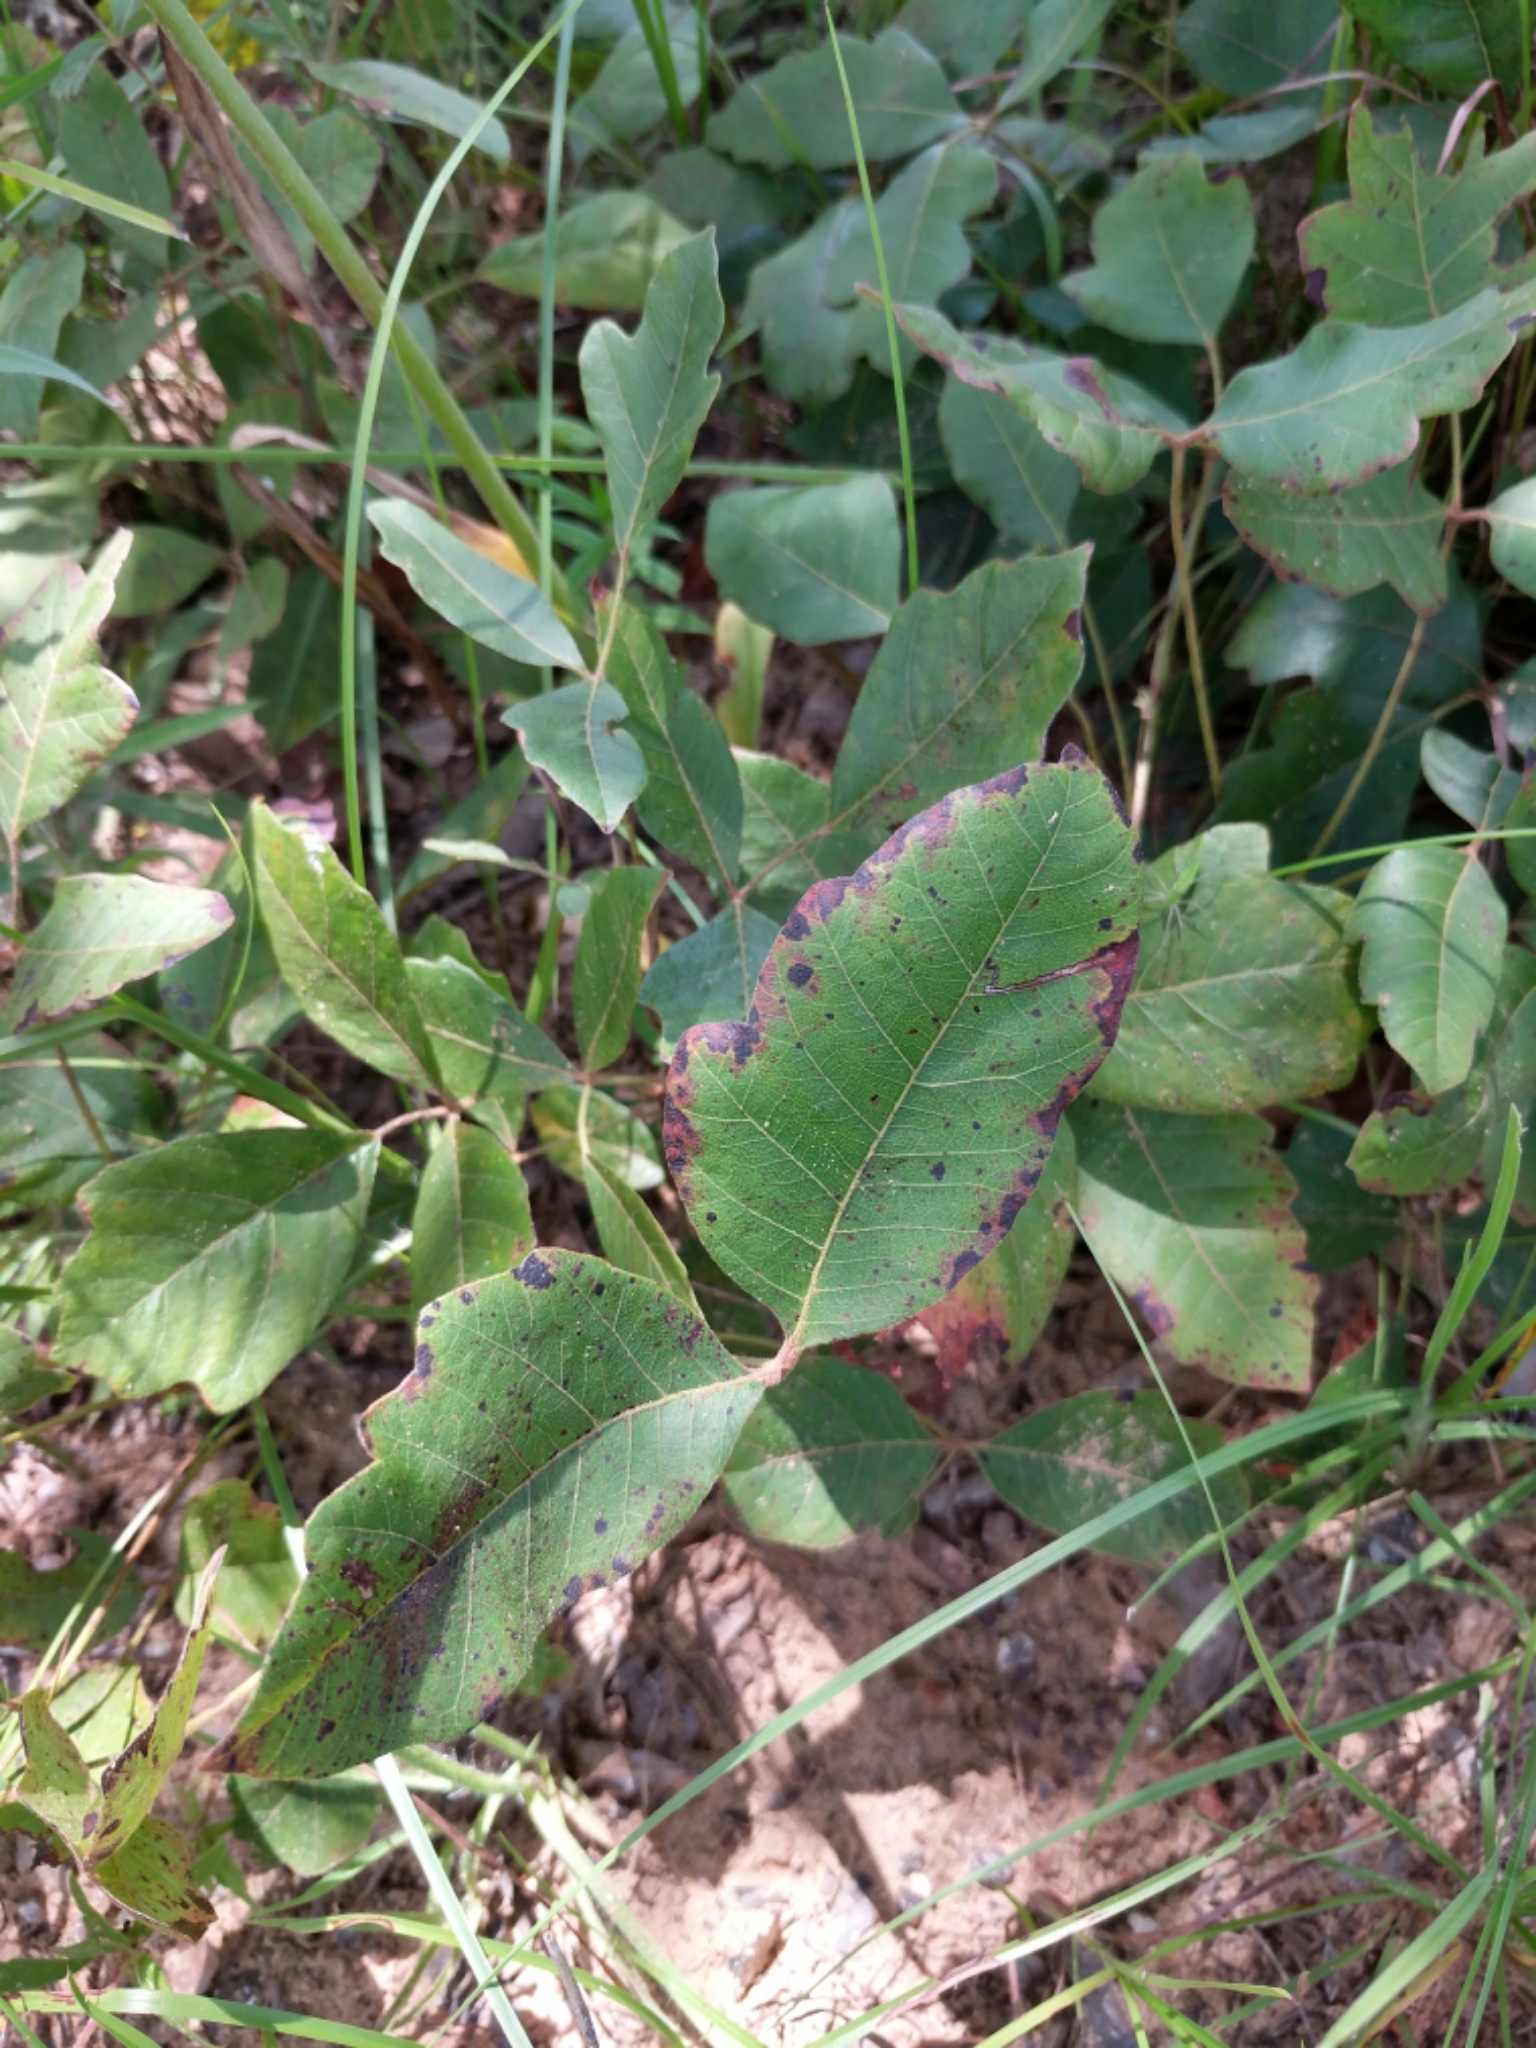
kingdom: Plantae
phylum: Tracheophyta
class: Magnoliopsida
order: Sapindales
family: Anacardiaceae
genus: Toxicodendron
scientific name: Toxicodendron pubescens
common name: Eastern poison-oak
